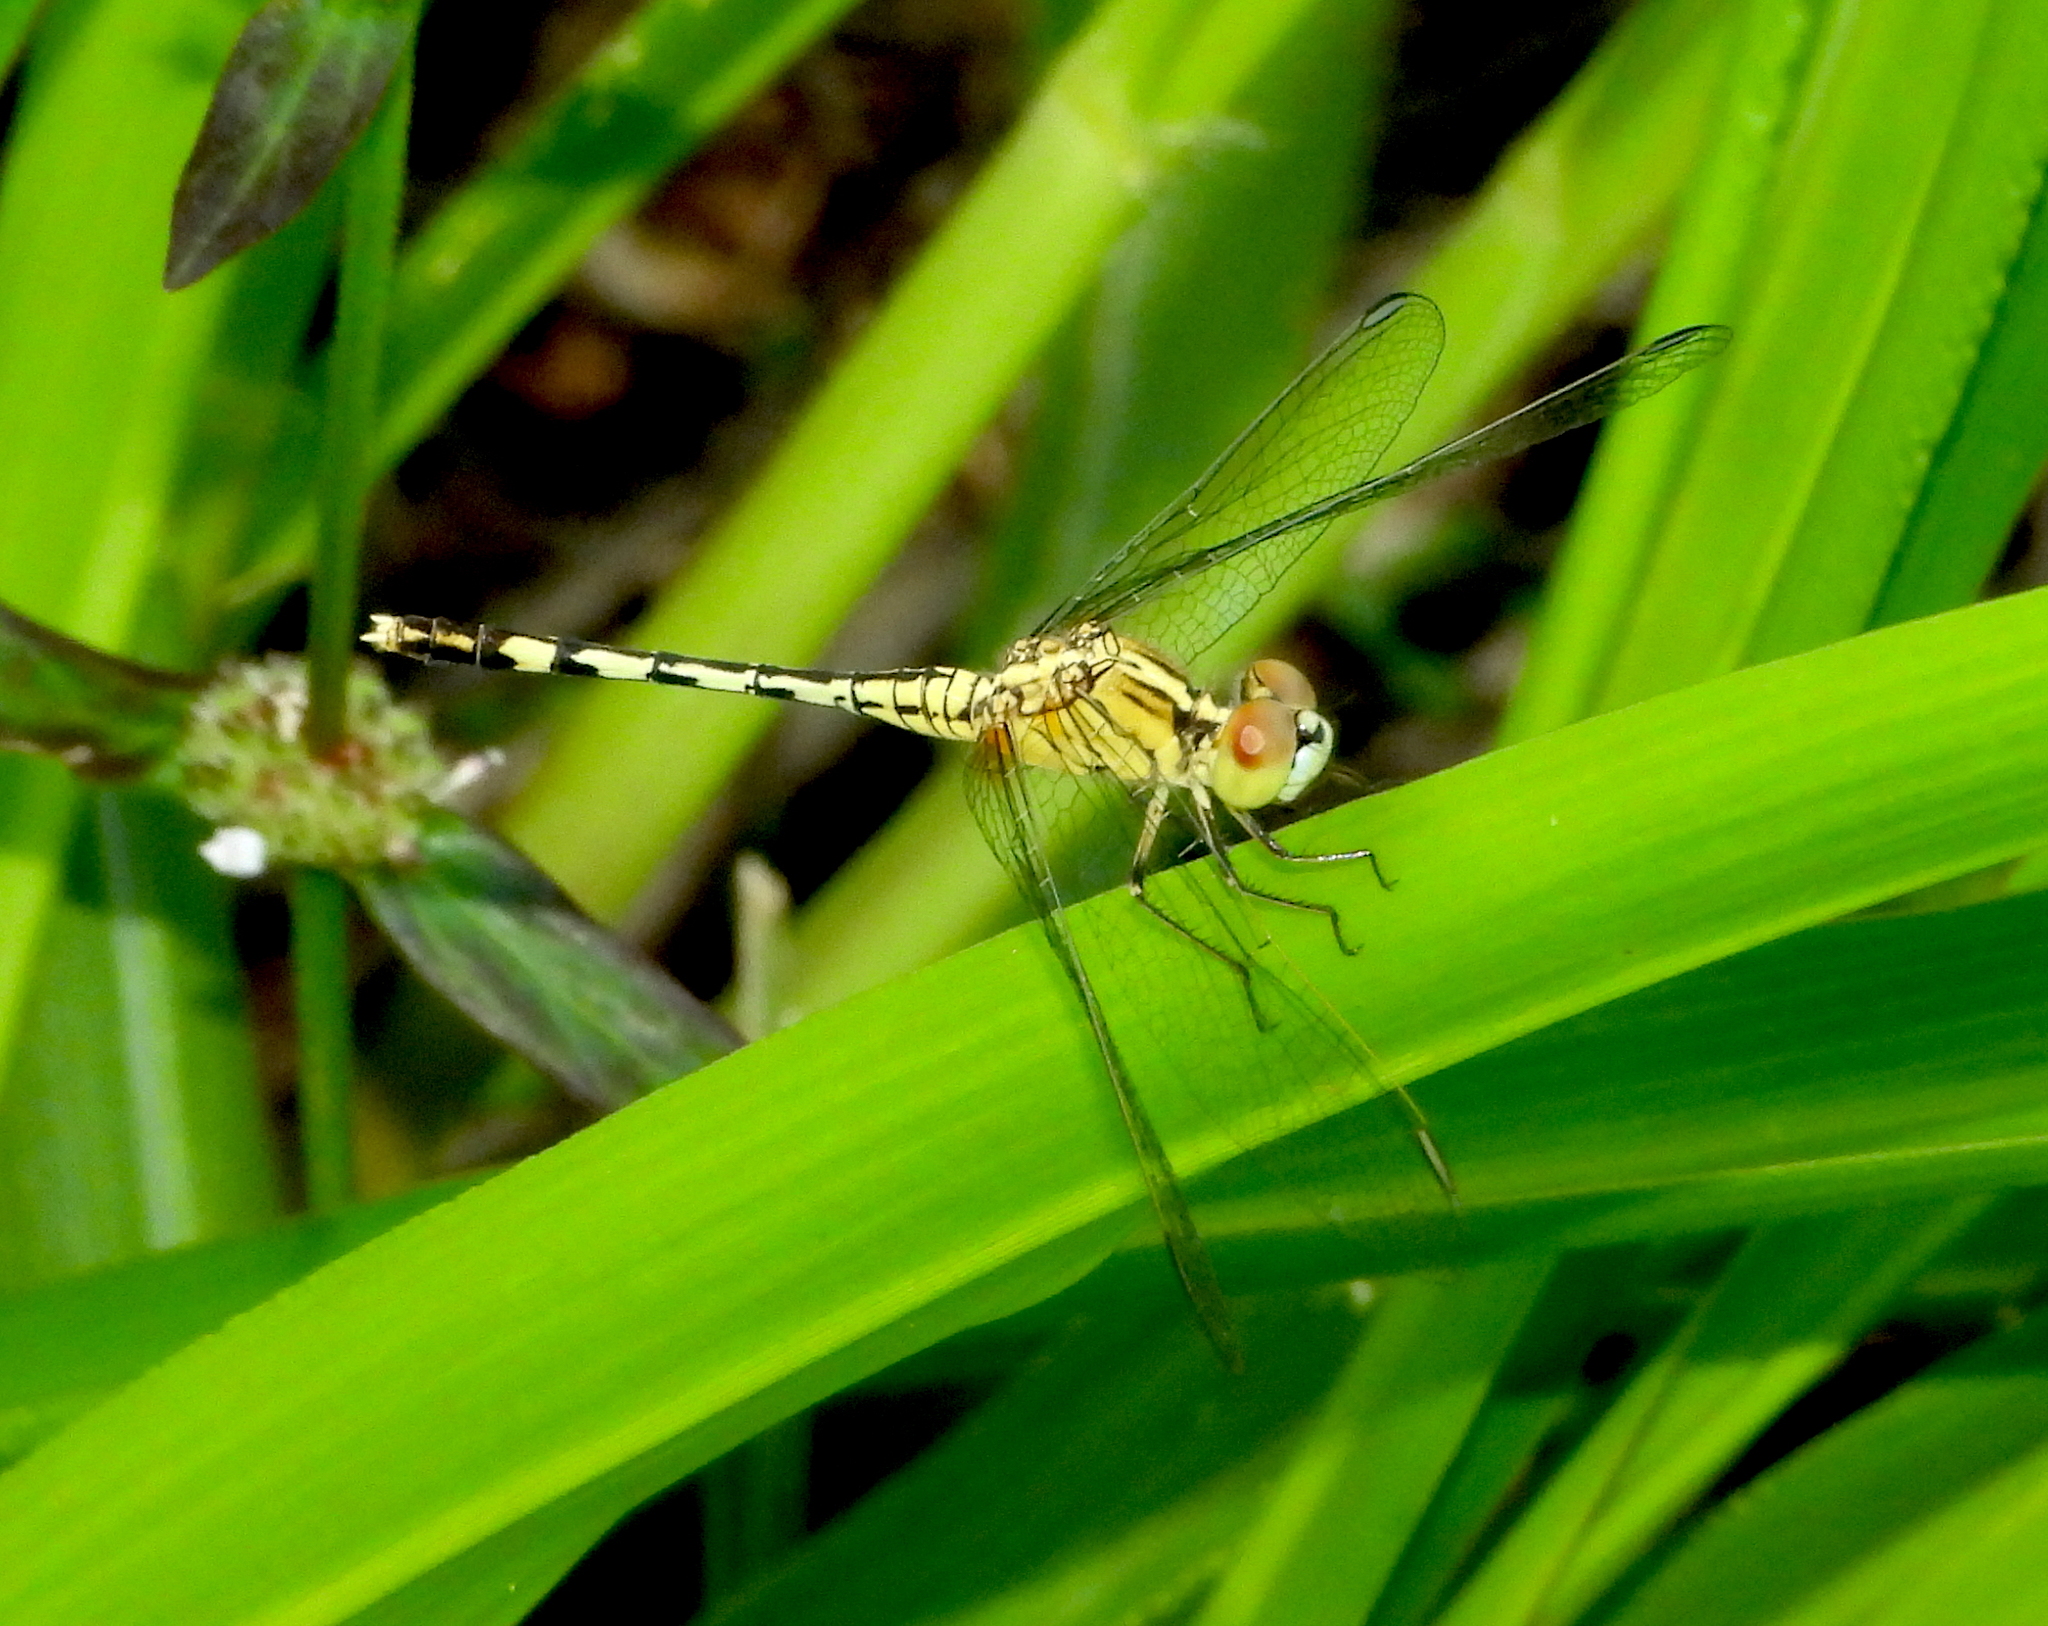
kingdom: Animalia
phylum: Arthropoda
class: Insecta
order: Odonata
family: Libellulidae
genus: Diplacodes
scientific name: Diplacodes trivialis
